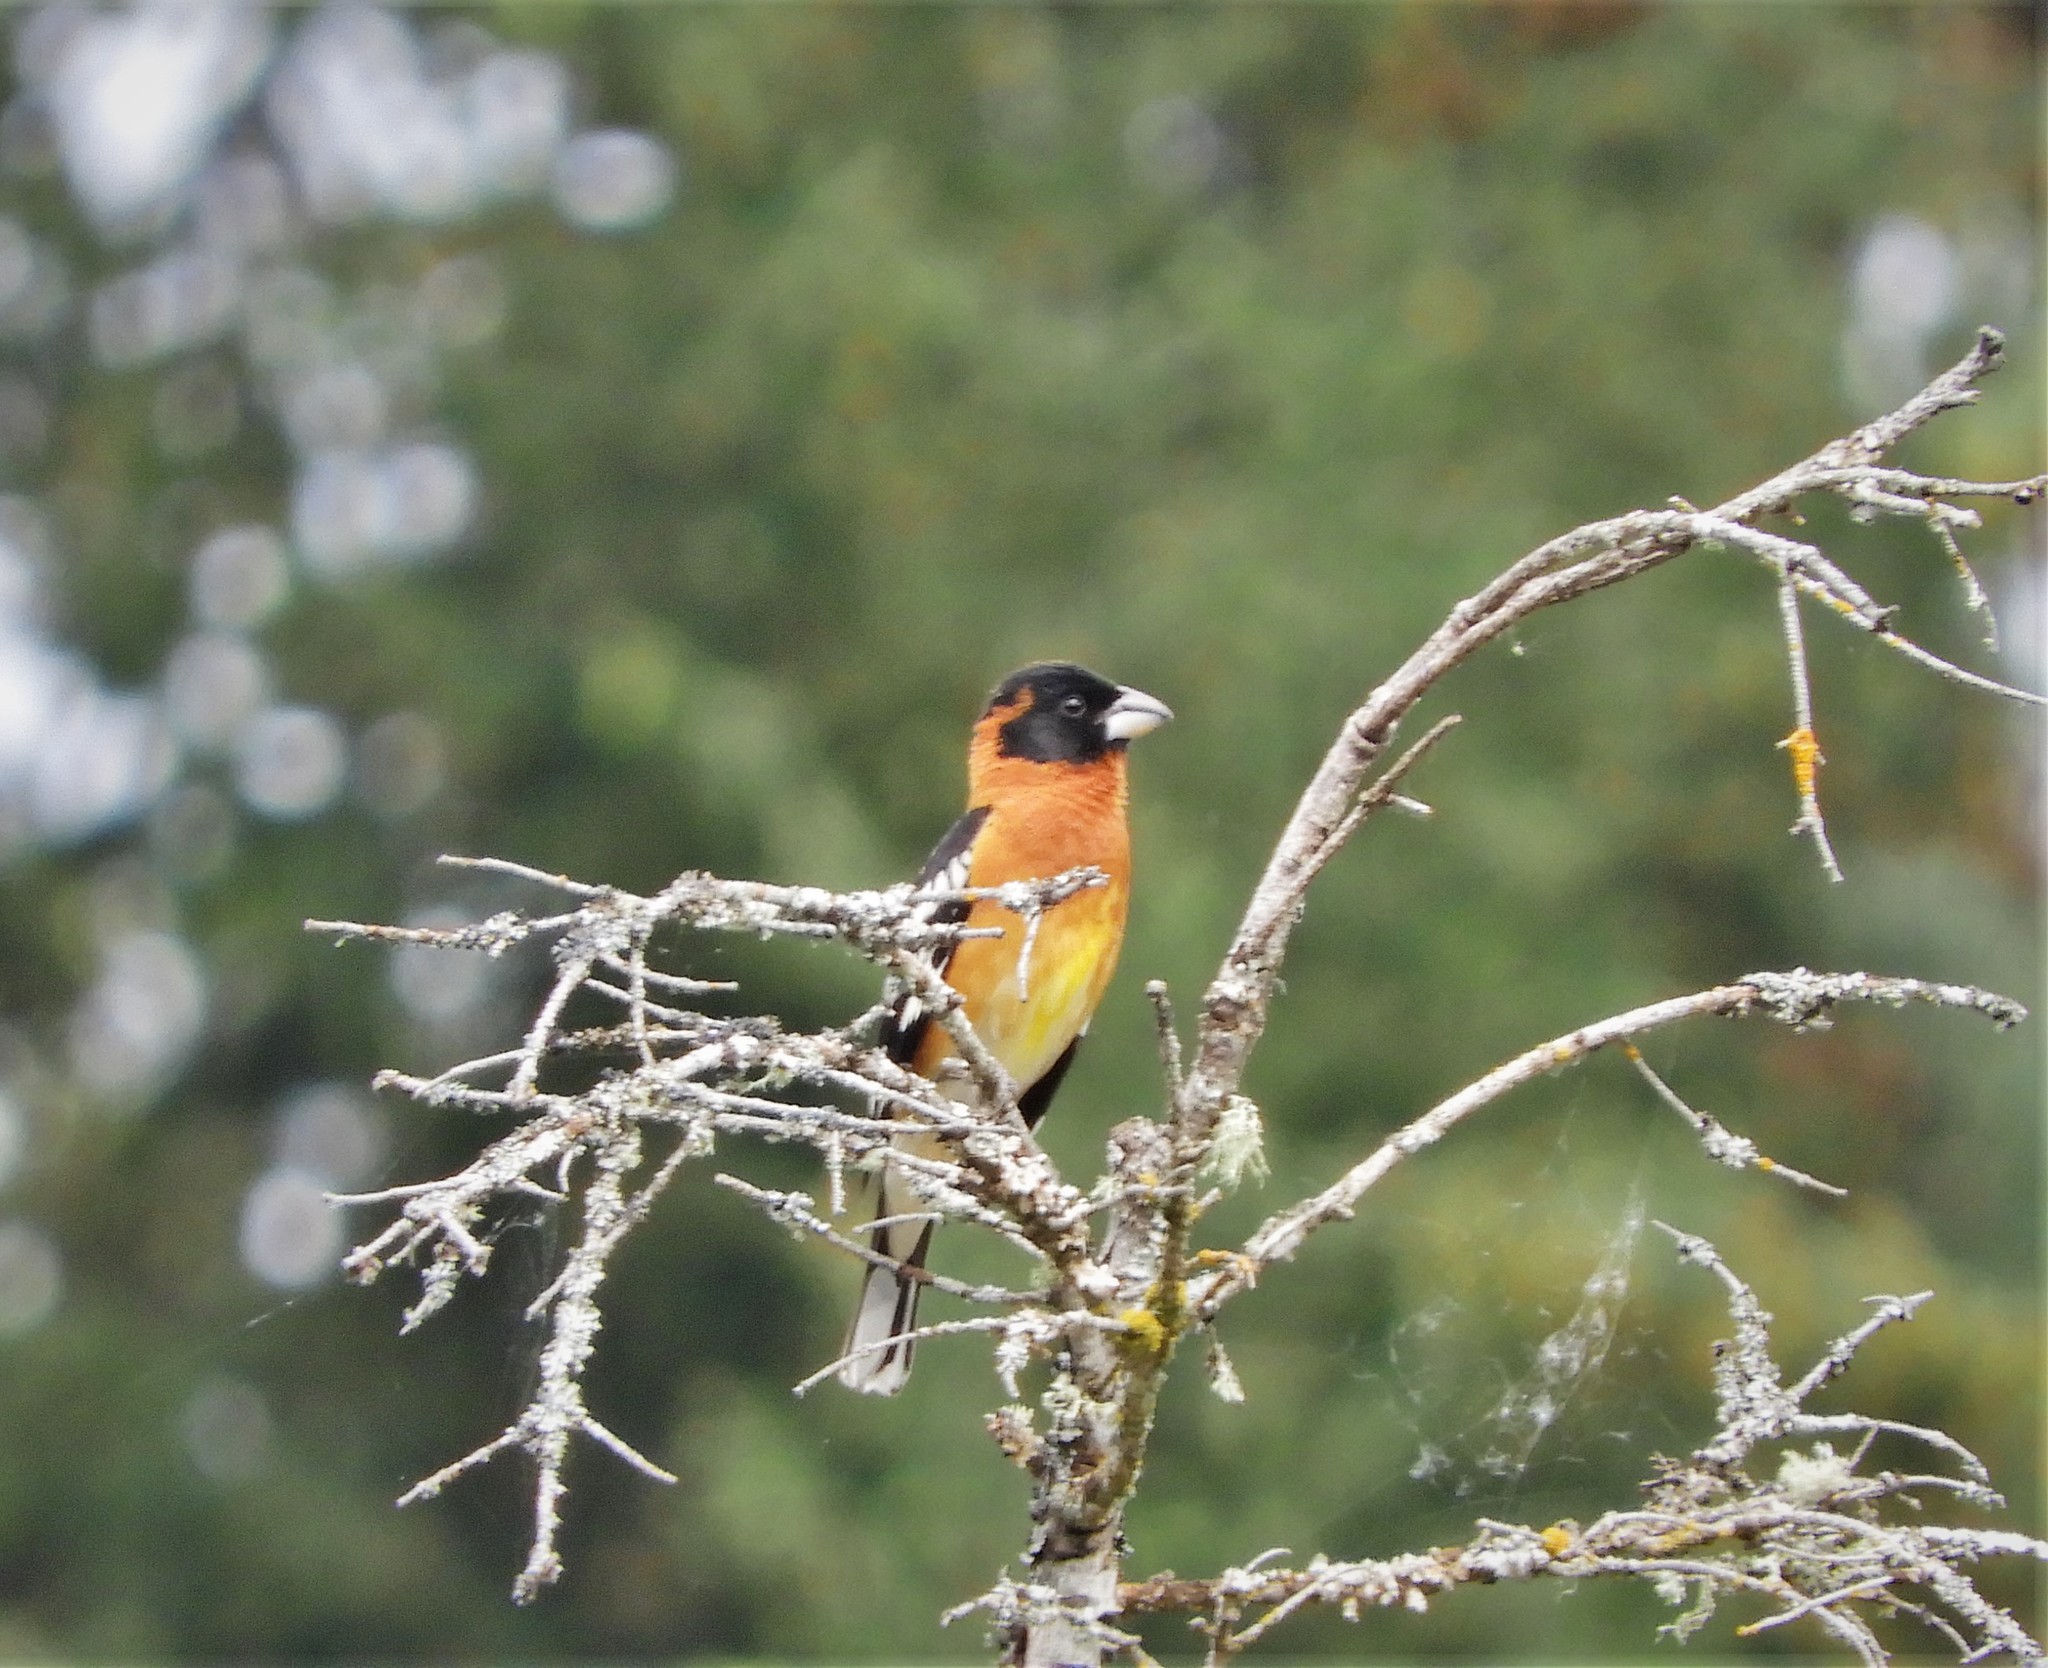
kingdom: Animalia
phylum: Chordata
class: Aves
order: Passeriformes
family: Cardinalidae
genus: Pheucticus
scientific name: Pheucticus melanocephalus
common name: Black-headed grosbeak
